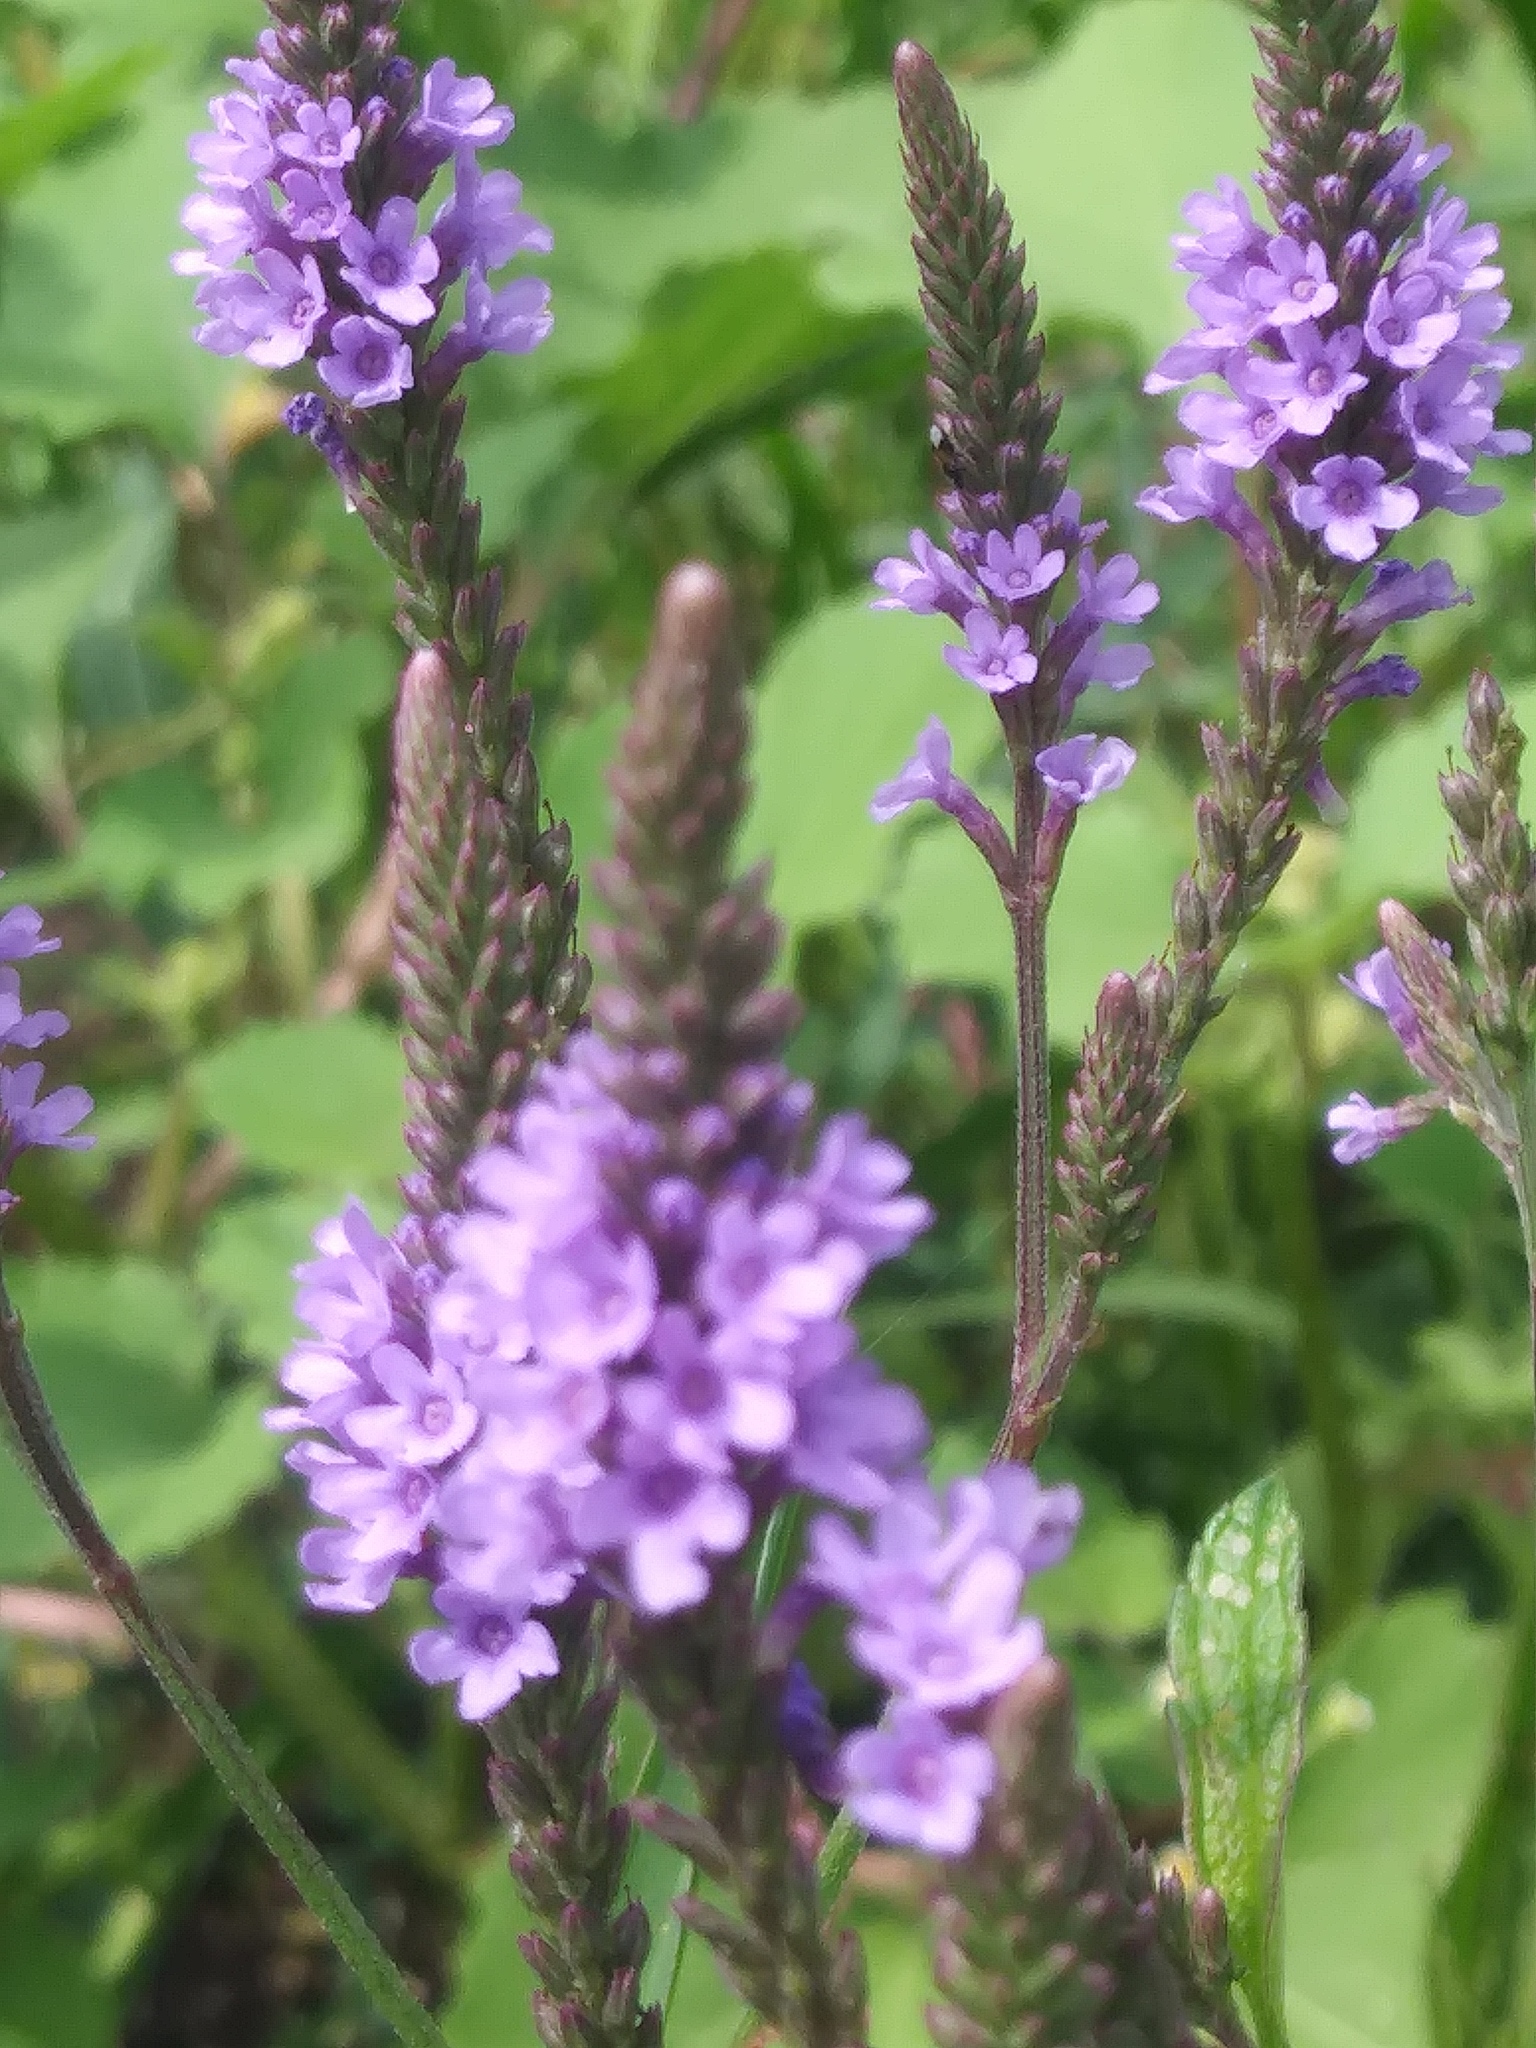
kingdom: Plantae
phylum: Tracheophyta
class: Magnoliopsida
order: Lamiales
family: Verbenaceae
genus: Verbena
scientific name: Verbena hastata
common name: American blue vervain
